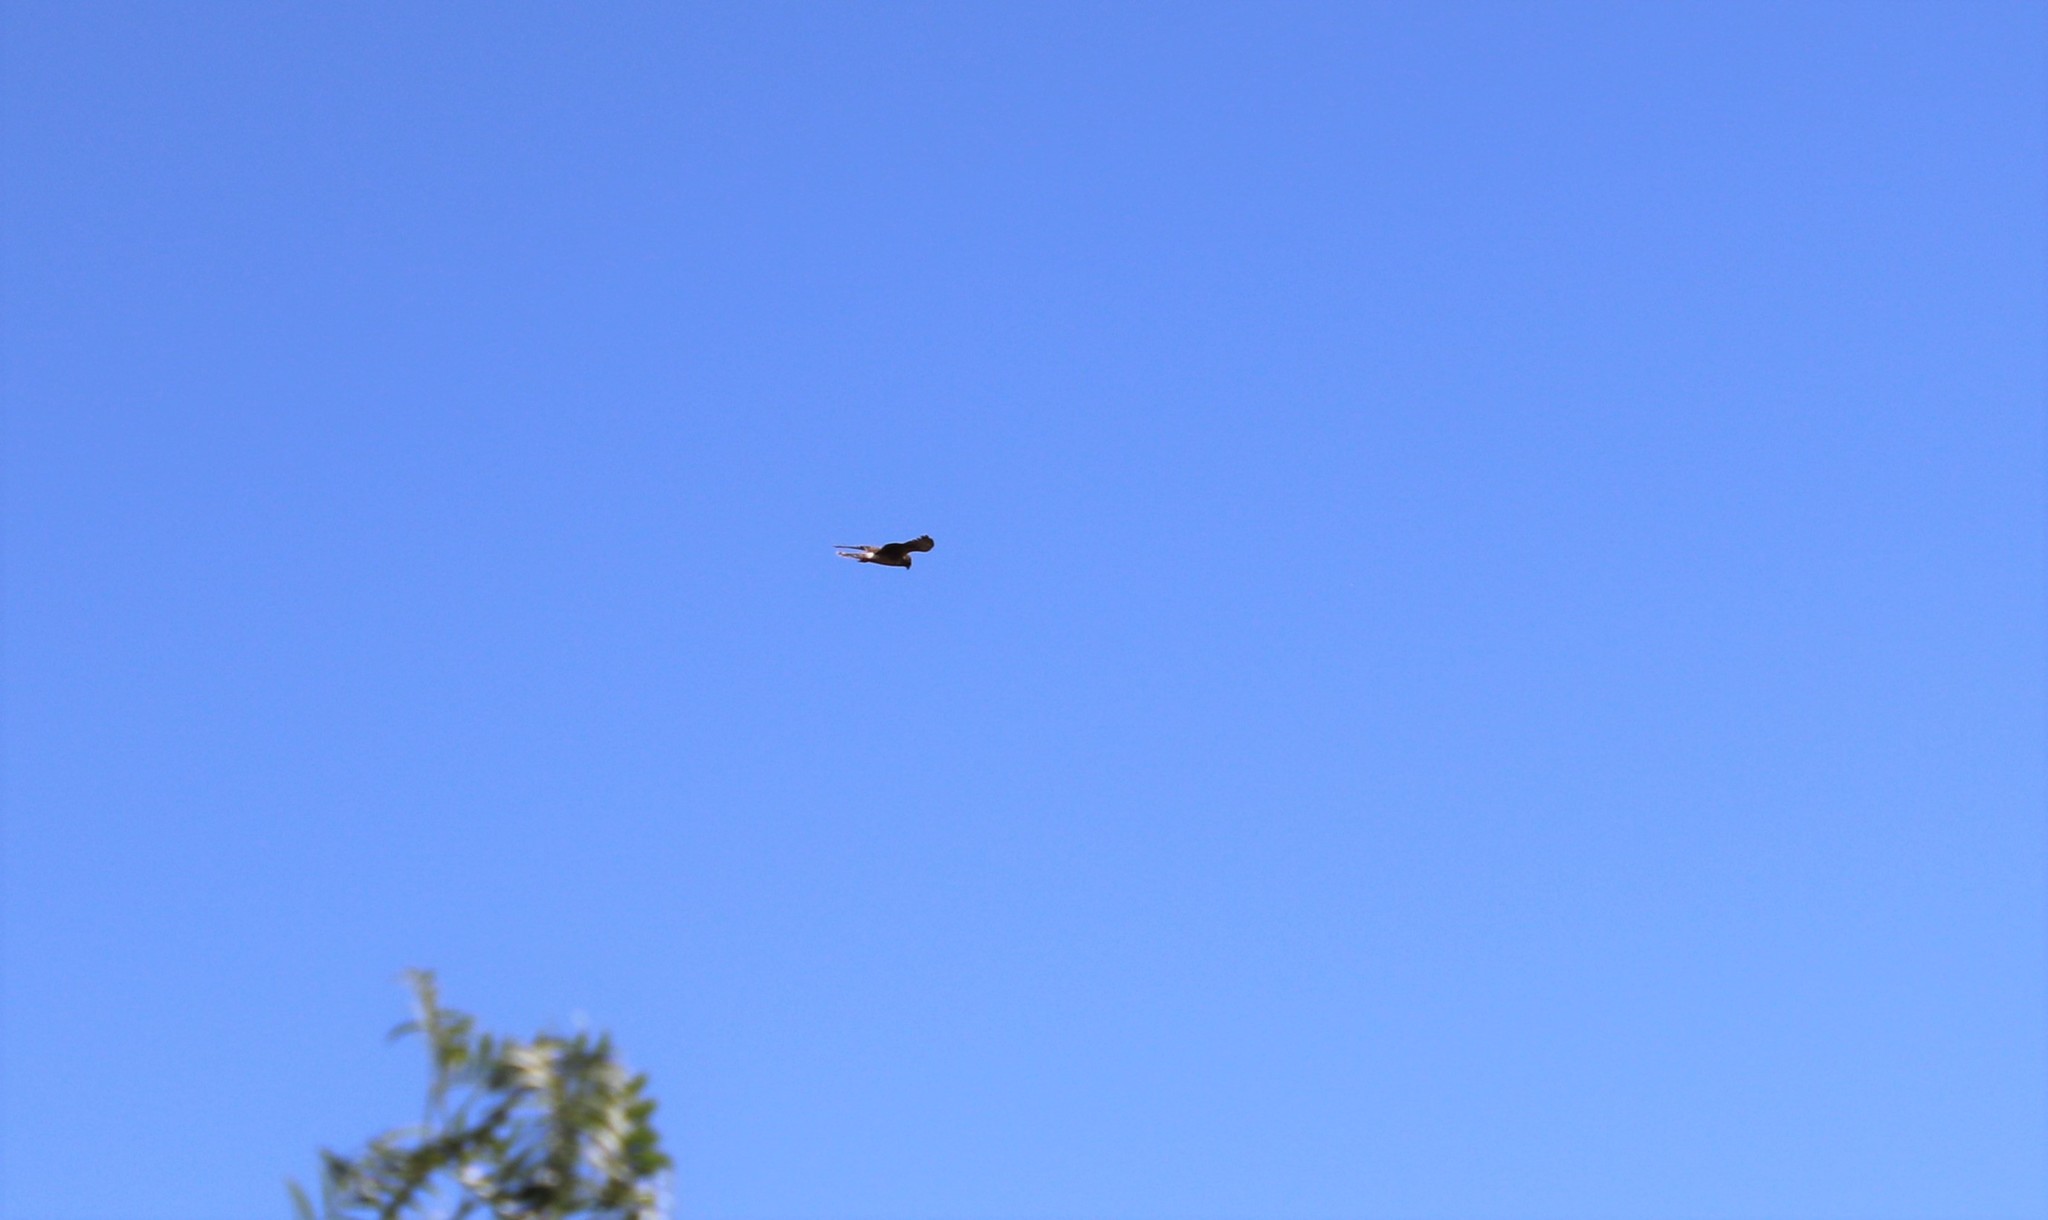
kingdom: Animalia
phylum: Chordata
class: Aves
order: Accipitriformes
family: Accipitridae
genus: Circus
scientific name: Circus cyaneus
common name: Hen harrier
